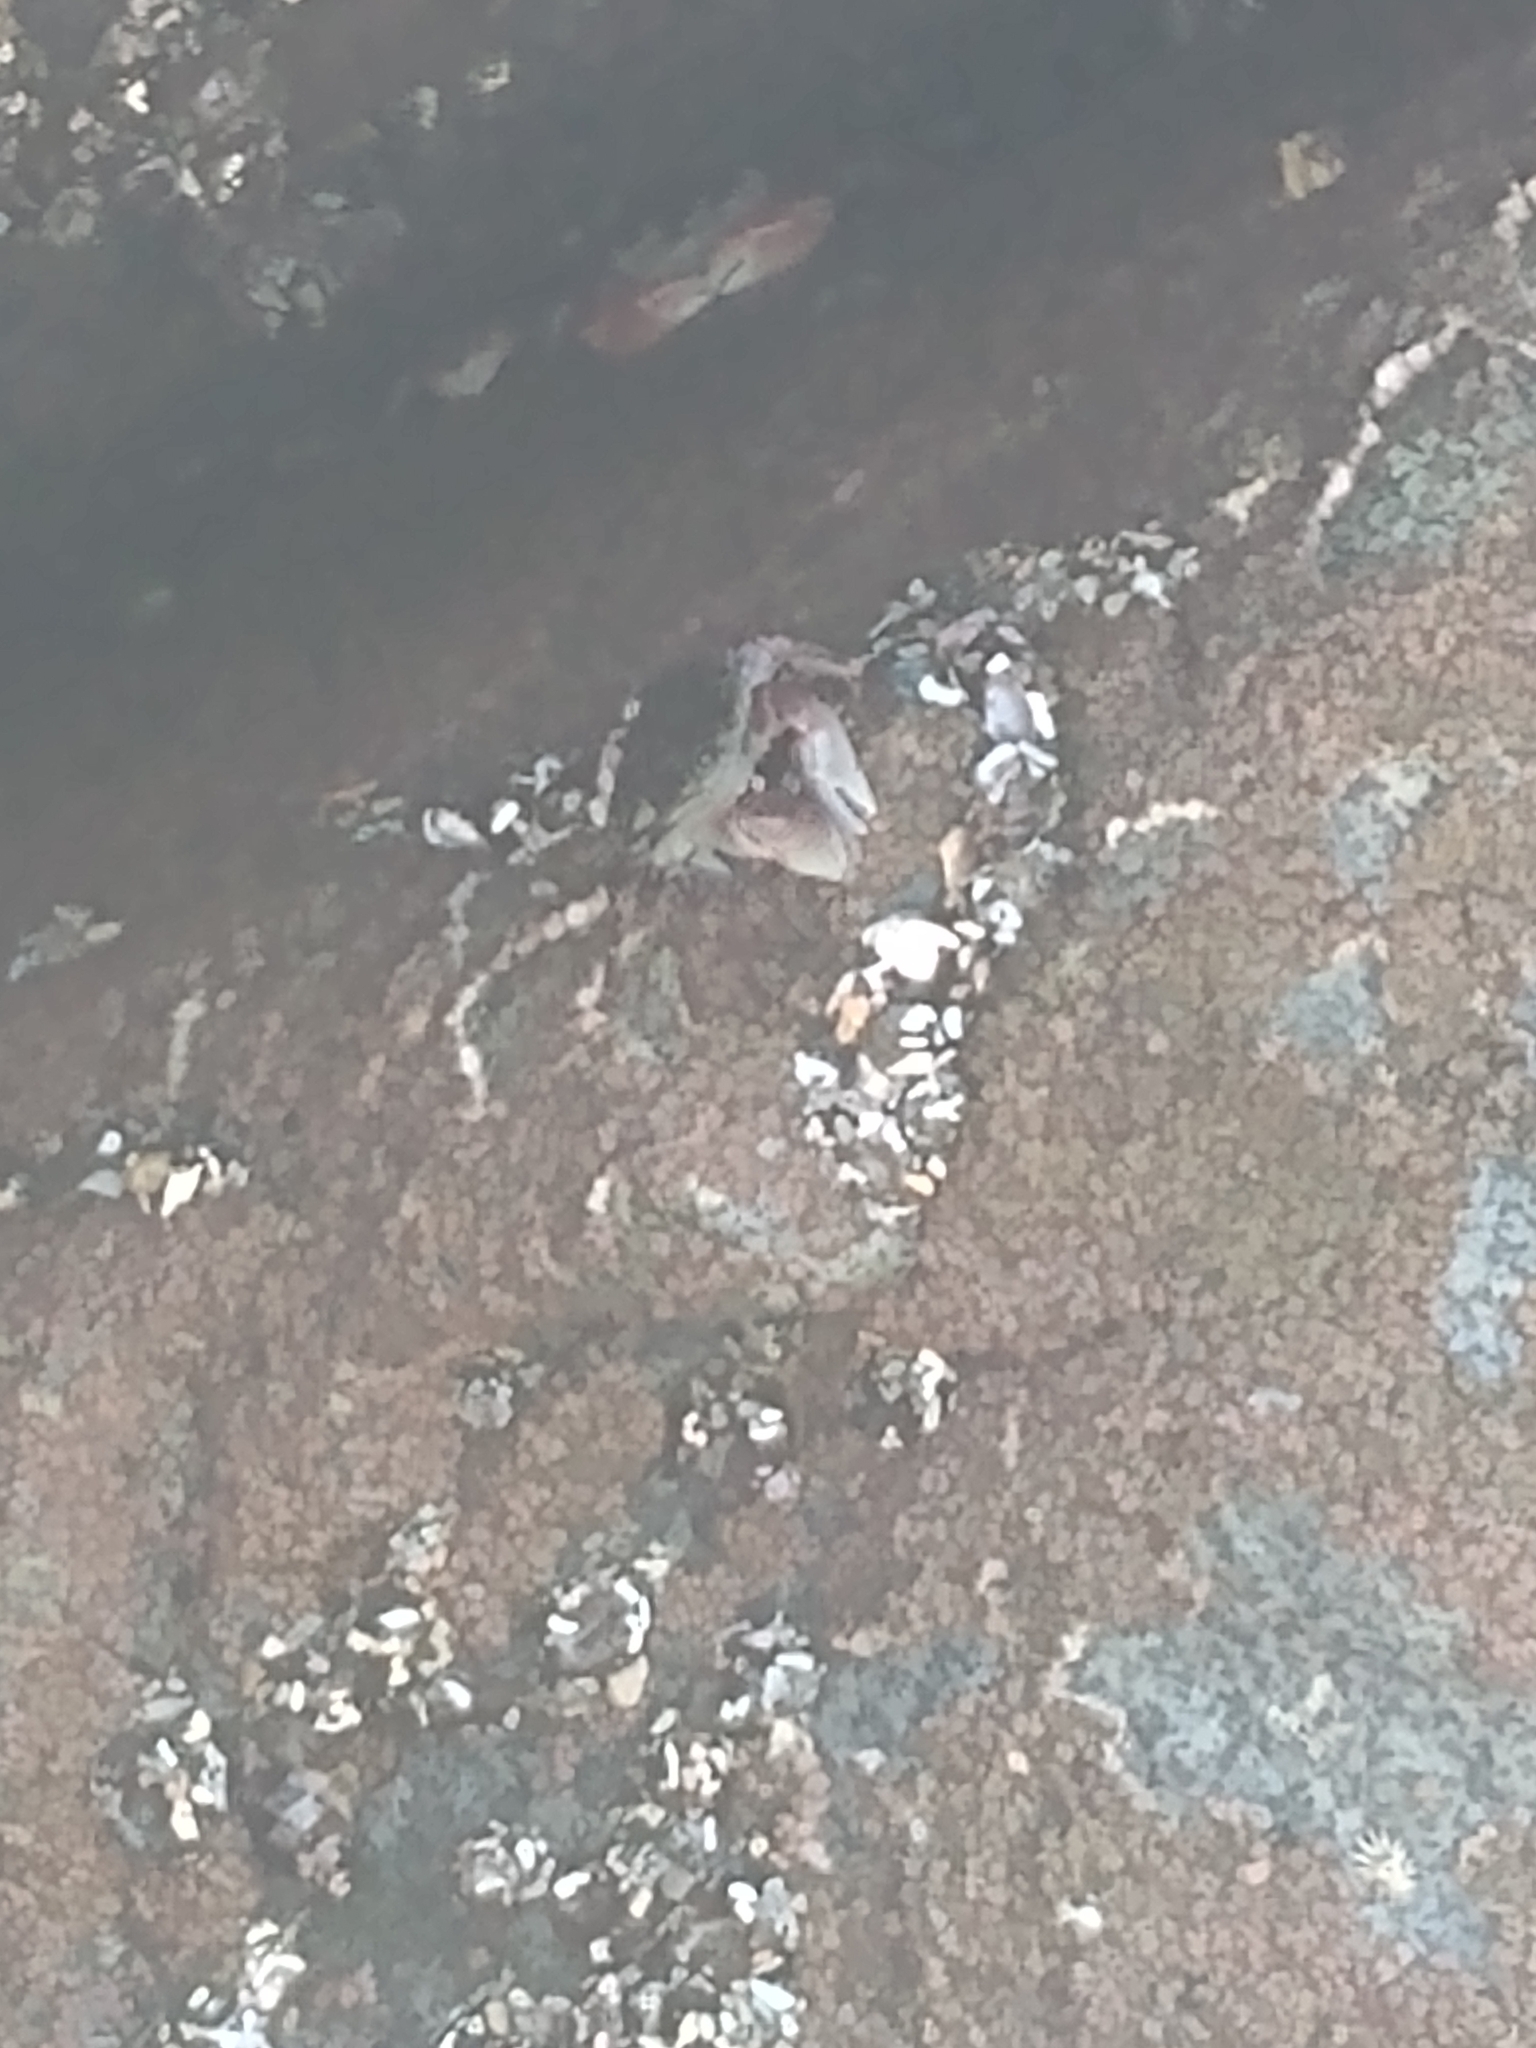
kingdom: Animalia
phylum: Arthropoda
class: Malacostraca
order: Decapoda
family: Grapsidae
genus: Pachygrapsus
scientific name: Pachygrapsus crassipes
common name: Striped shore crab
